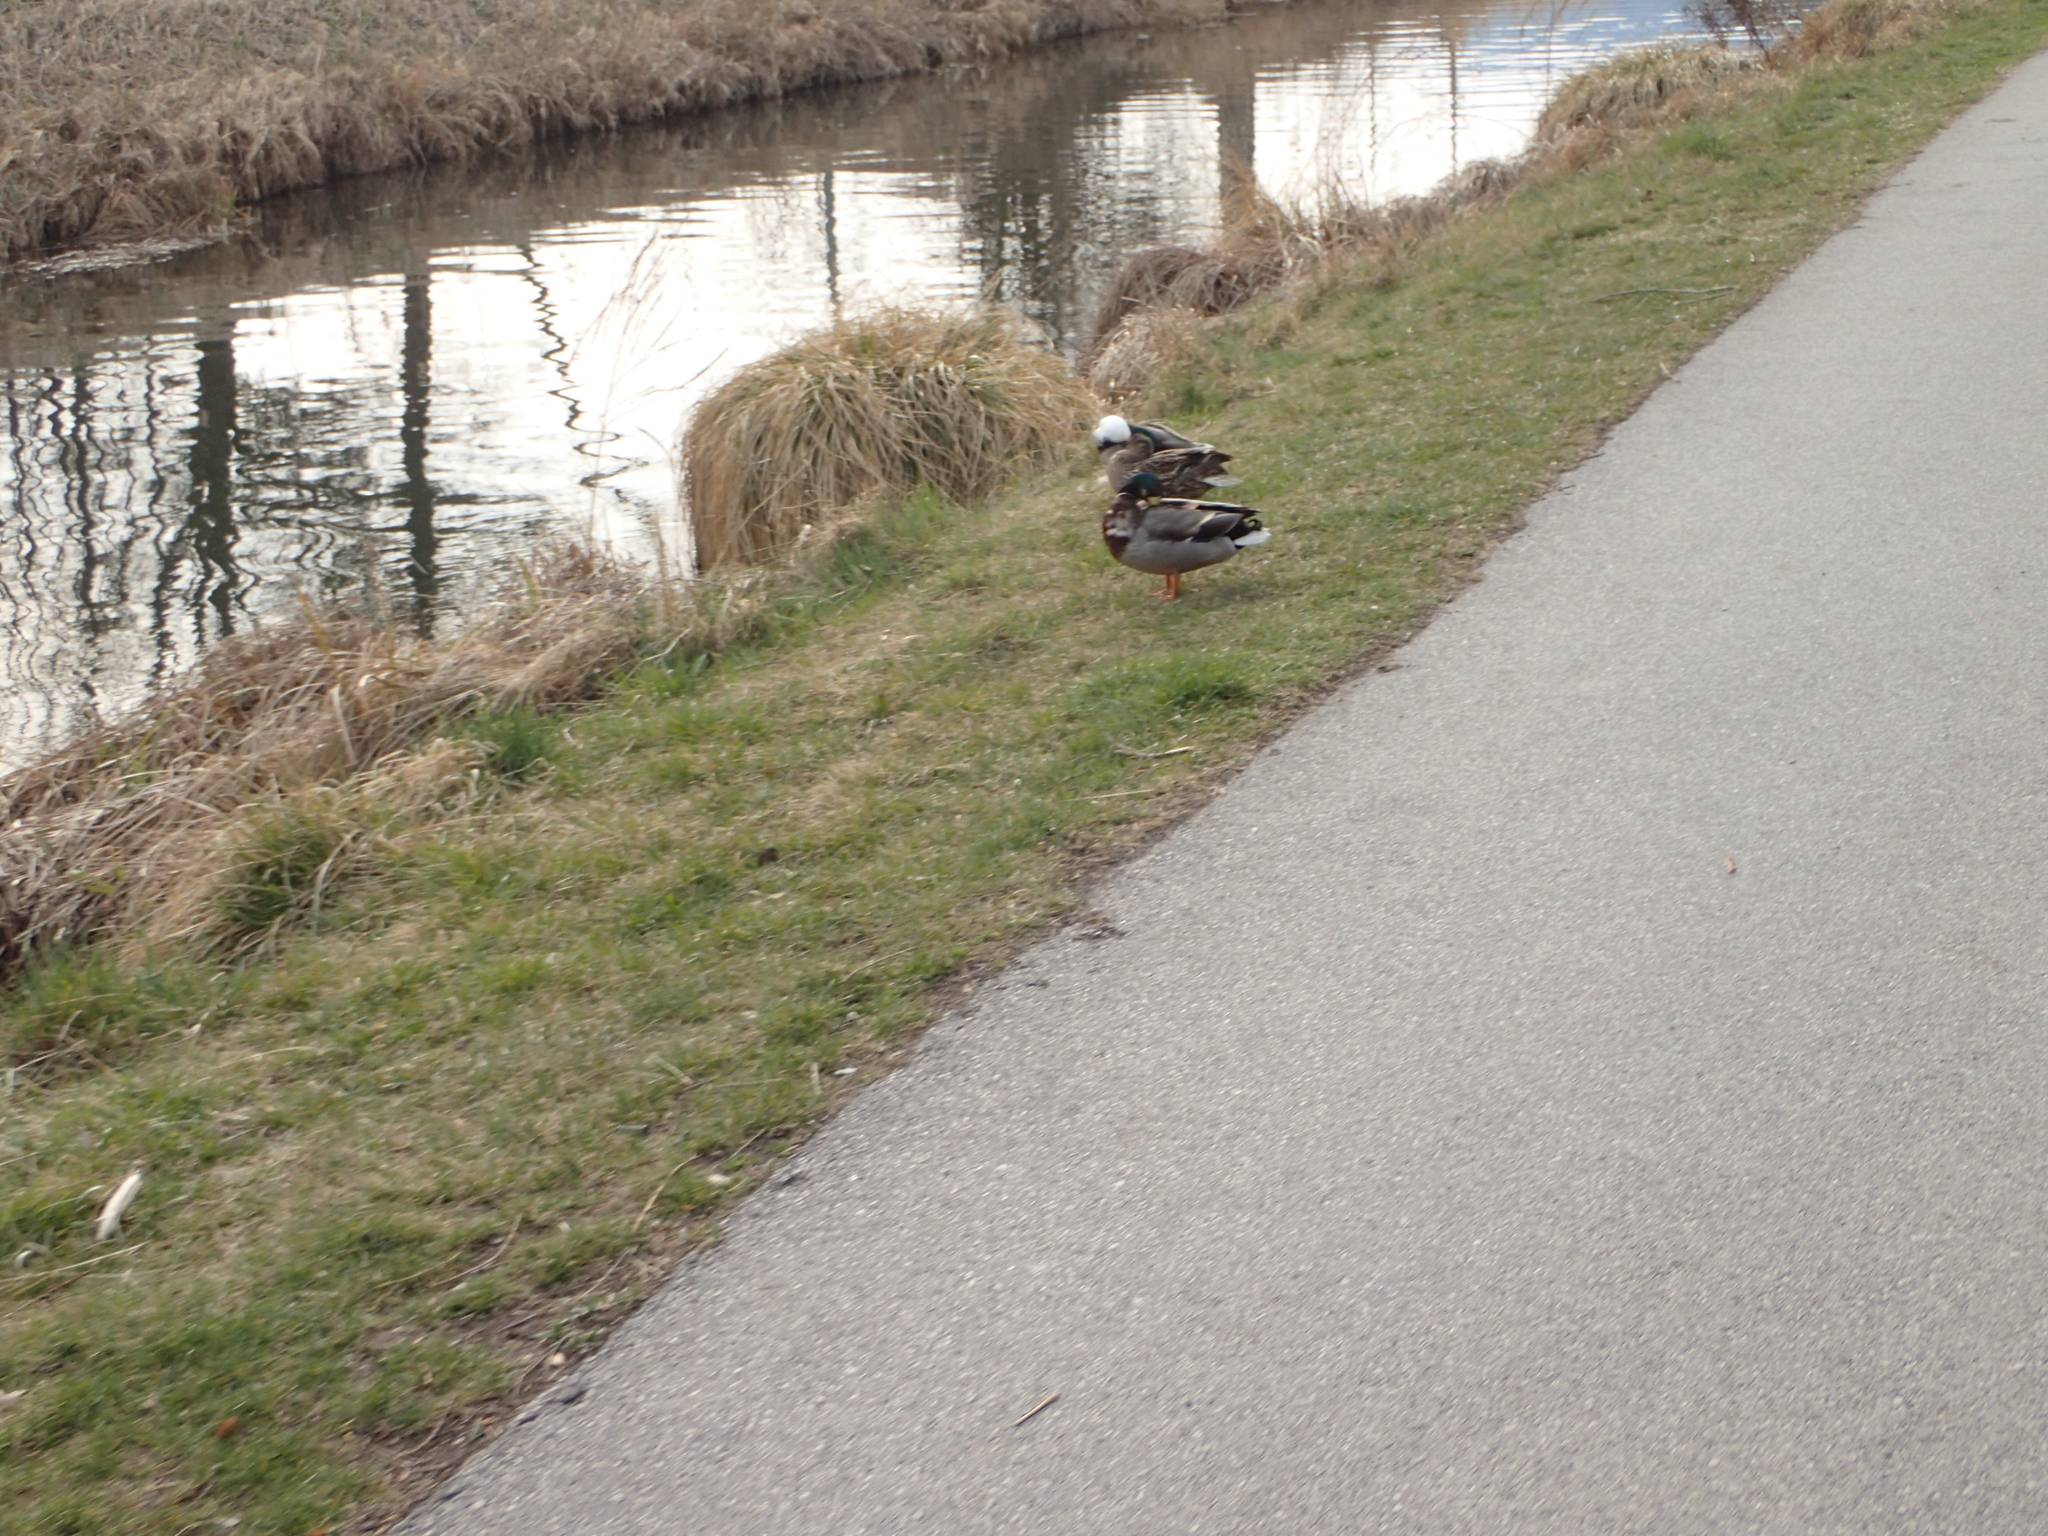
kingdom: Animalia
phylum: Chordata
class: Aves
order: Anseriformes
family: Anatidae
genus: Anas
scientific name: Anas platyrhynchos
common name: Mallard
